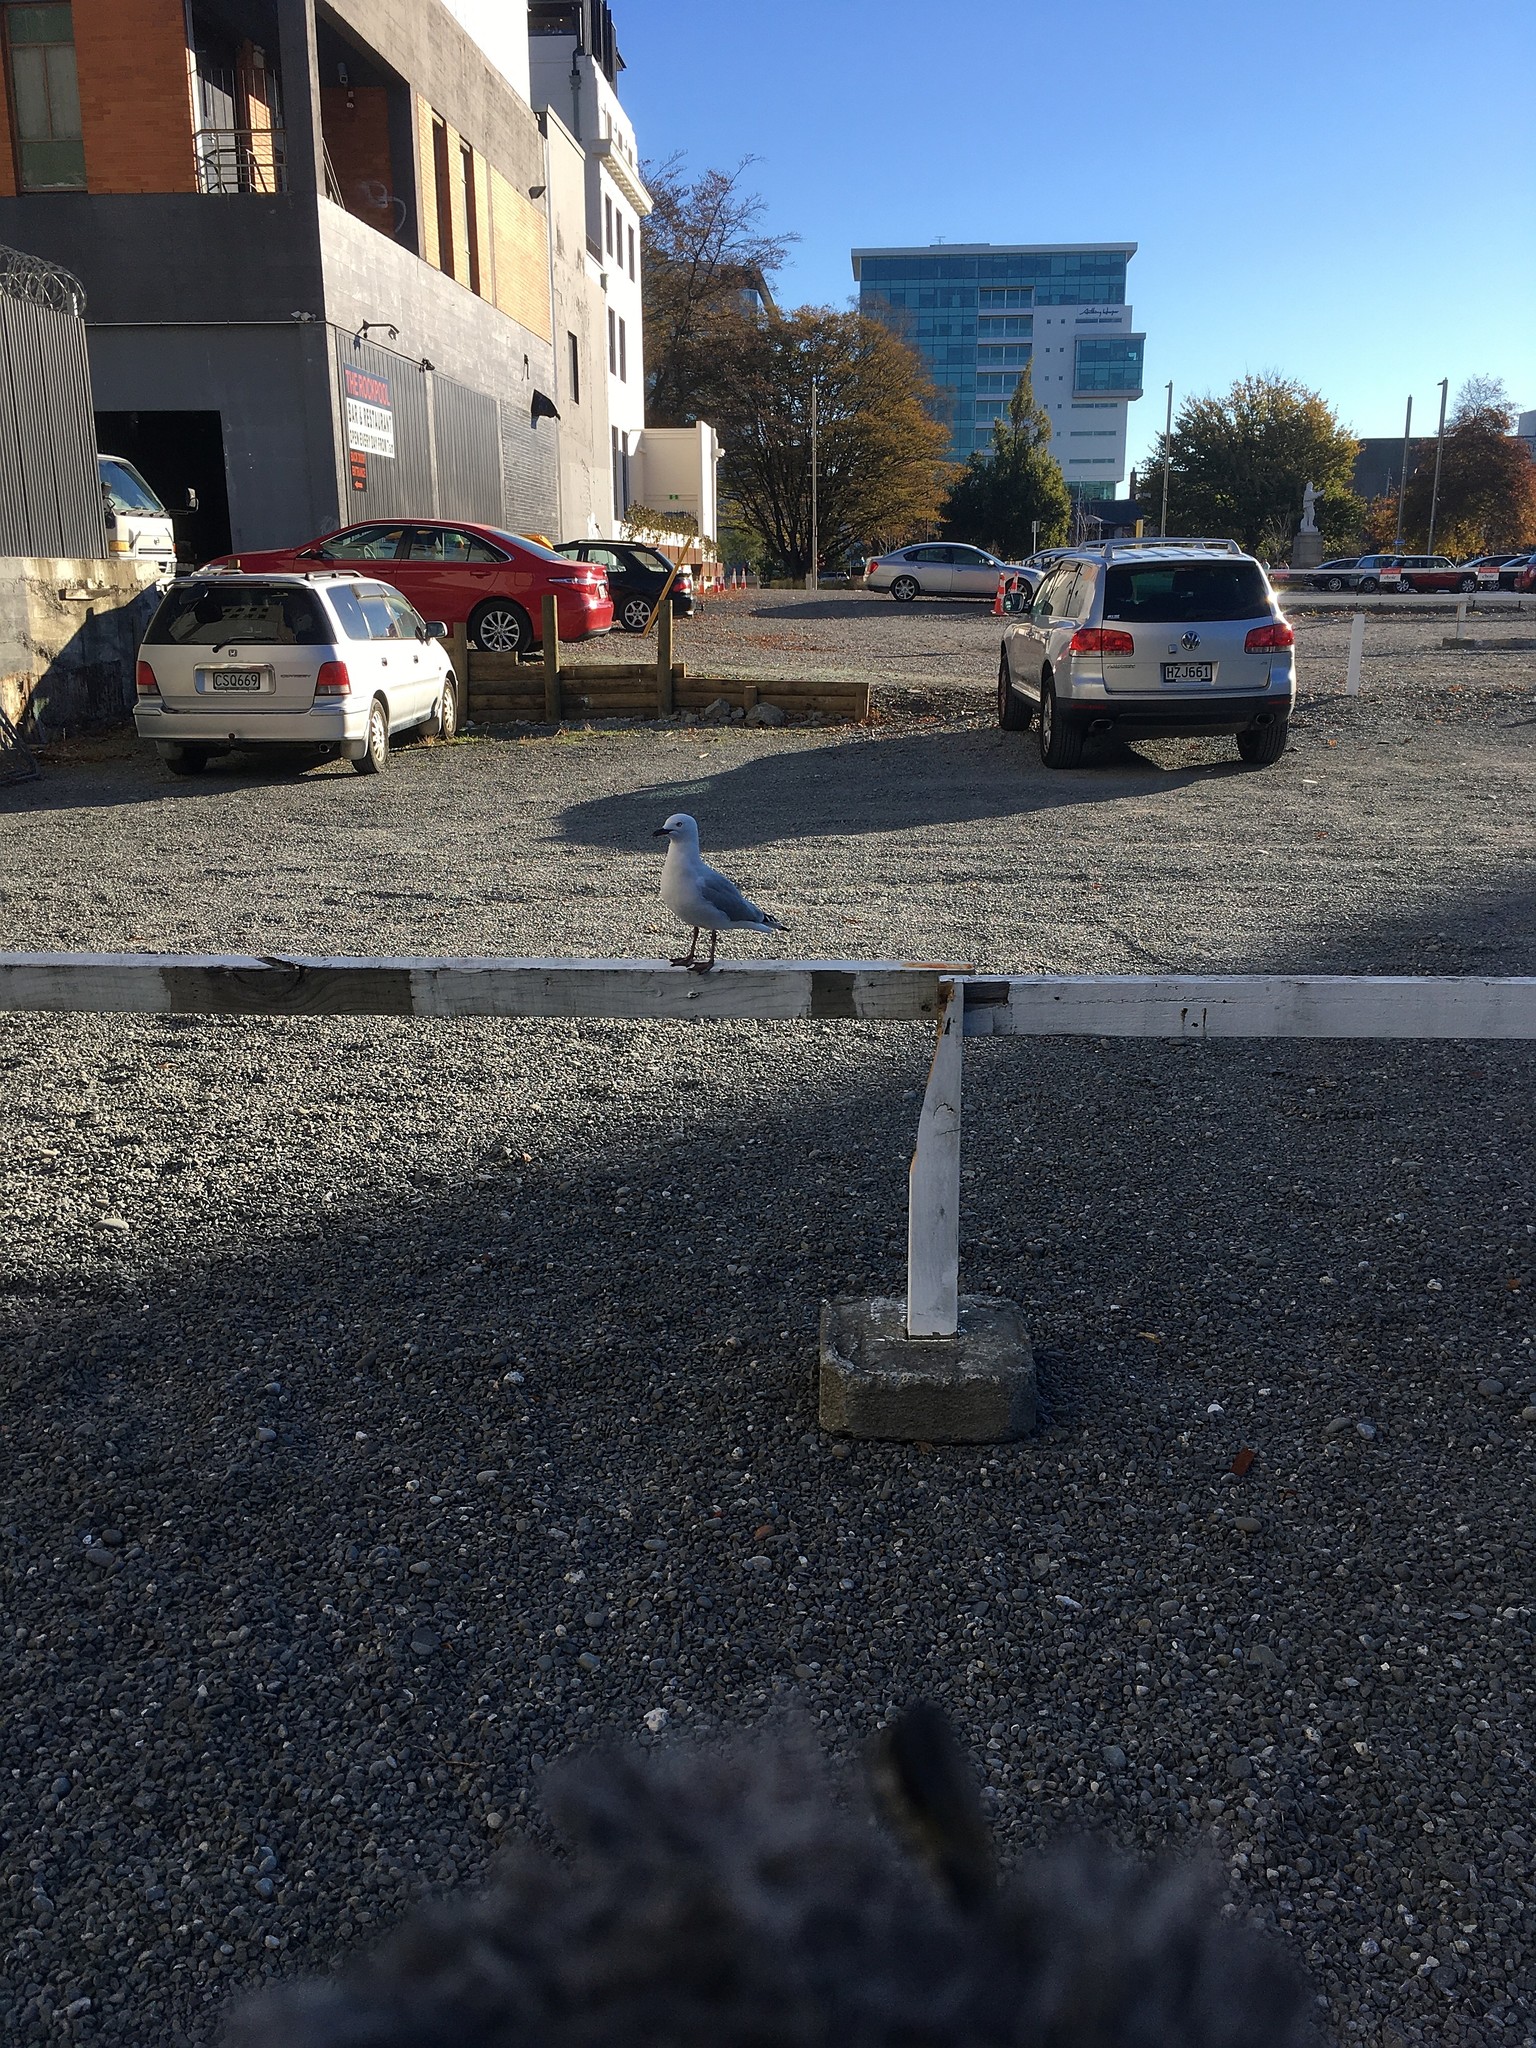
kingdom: Animalia
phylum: Chordata
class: Aves
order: Charadriiformes
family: Laridae
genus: Chroicocephalus
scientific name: Chroicocephalus novaehollandiae
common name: Silver gull
